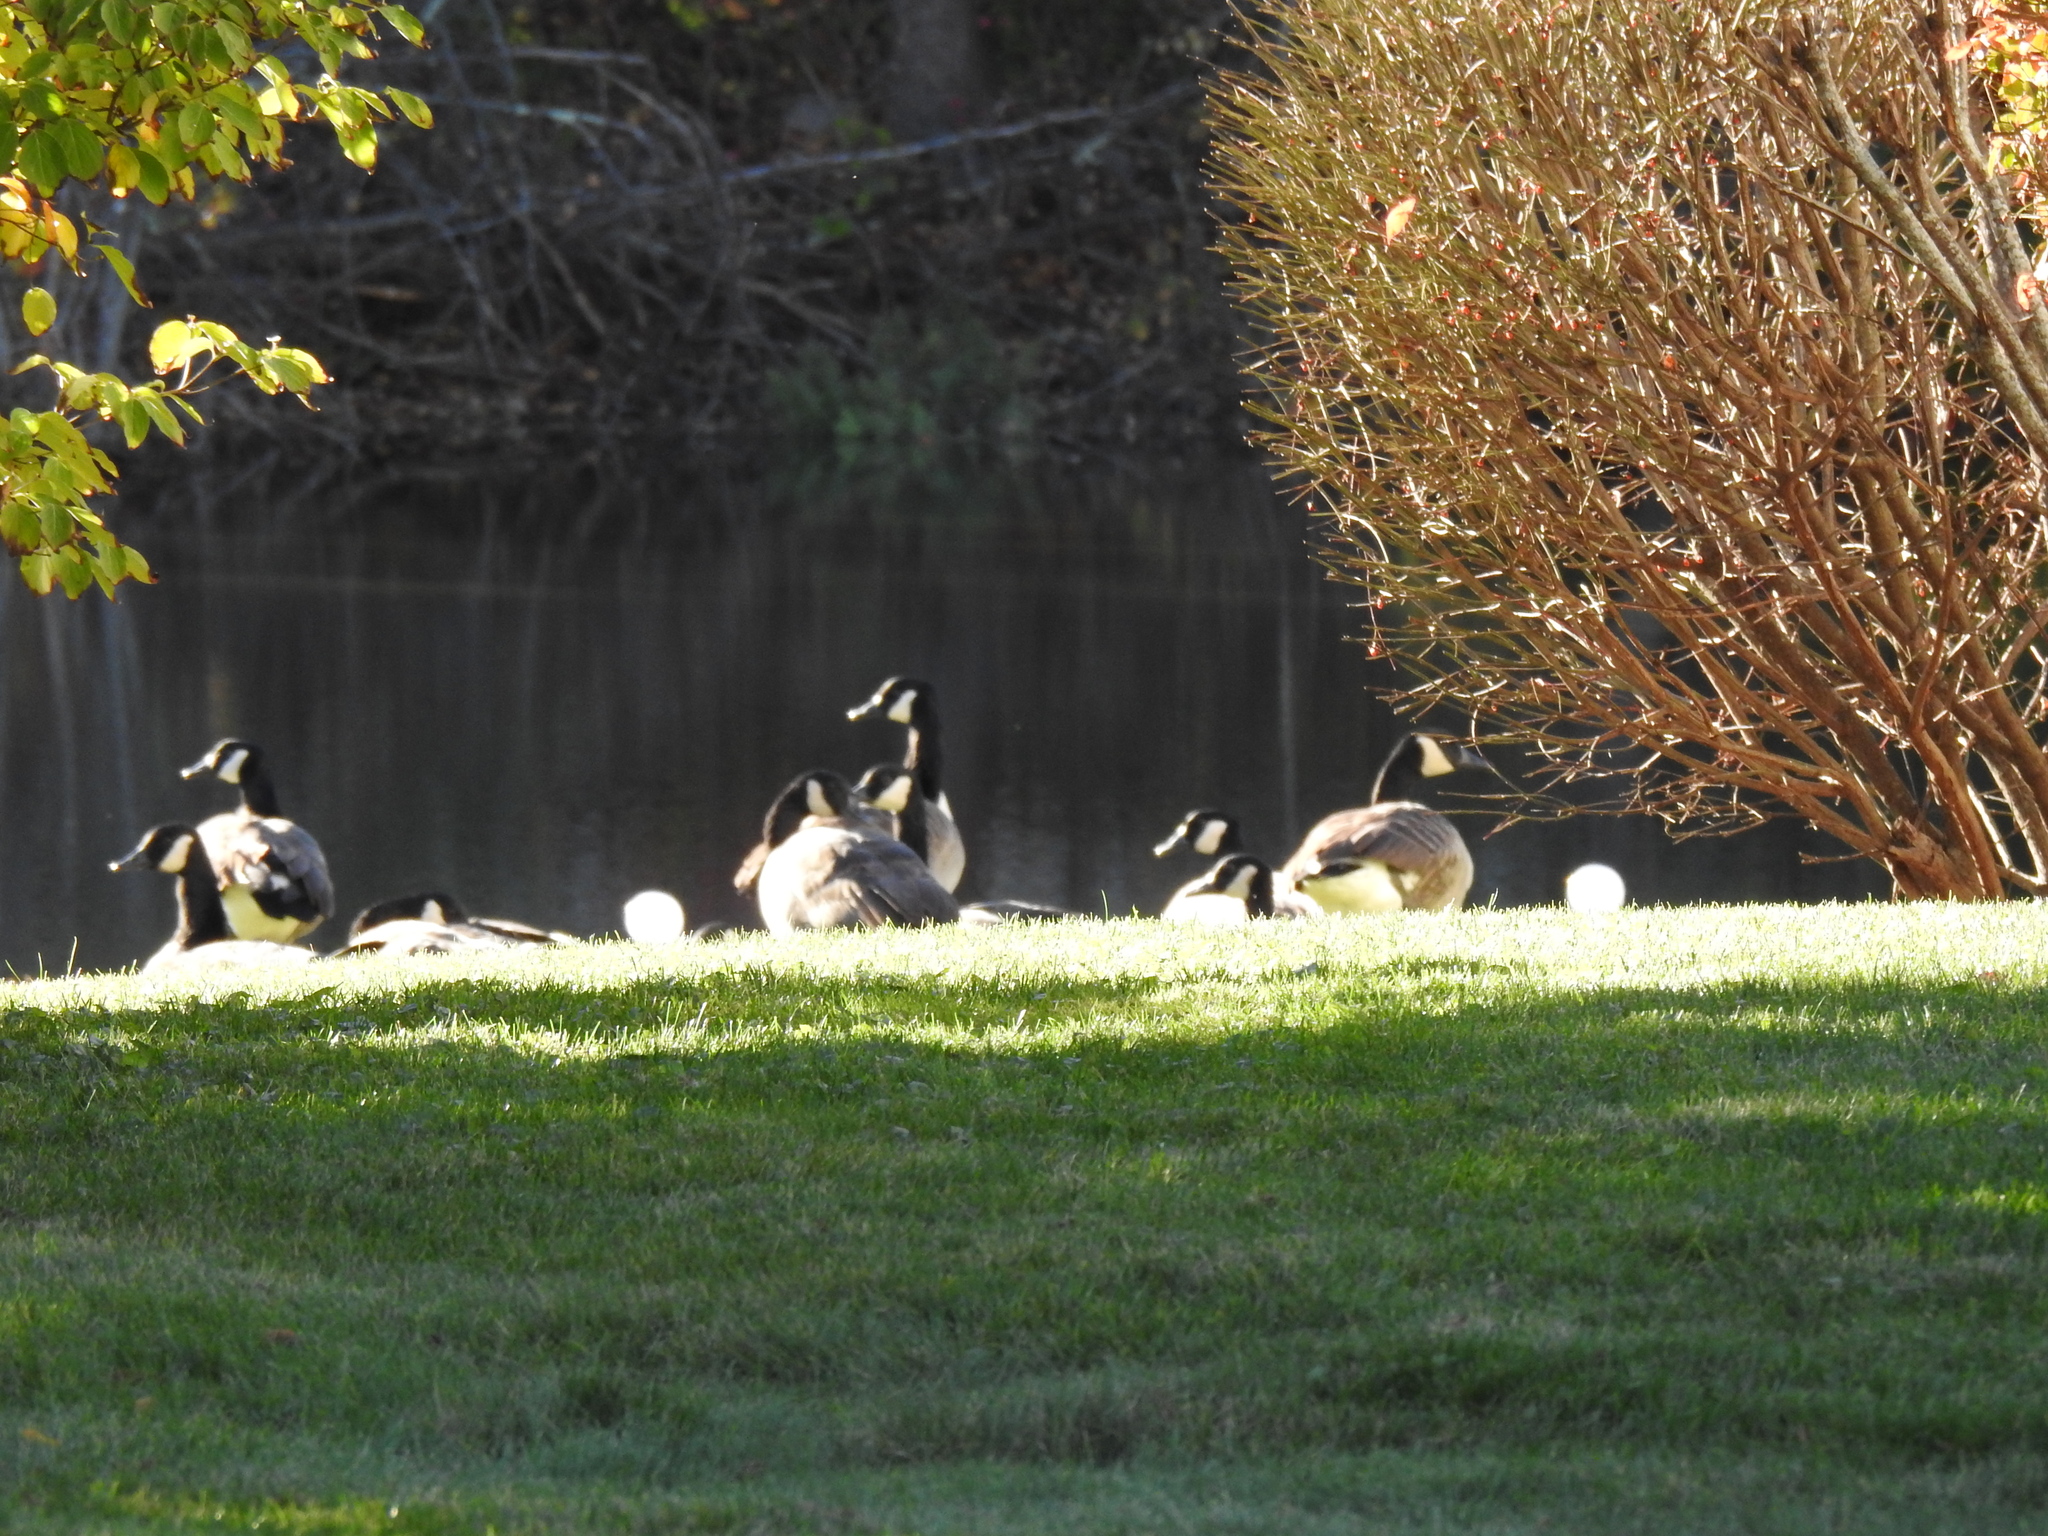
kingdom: Animalia
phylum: Chordata
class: Aves
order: Anseriformes
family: Anatidae
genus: Branta
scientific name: Branta canadensis
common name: Canada goose
